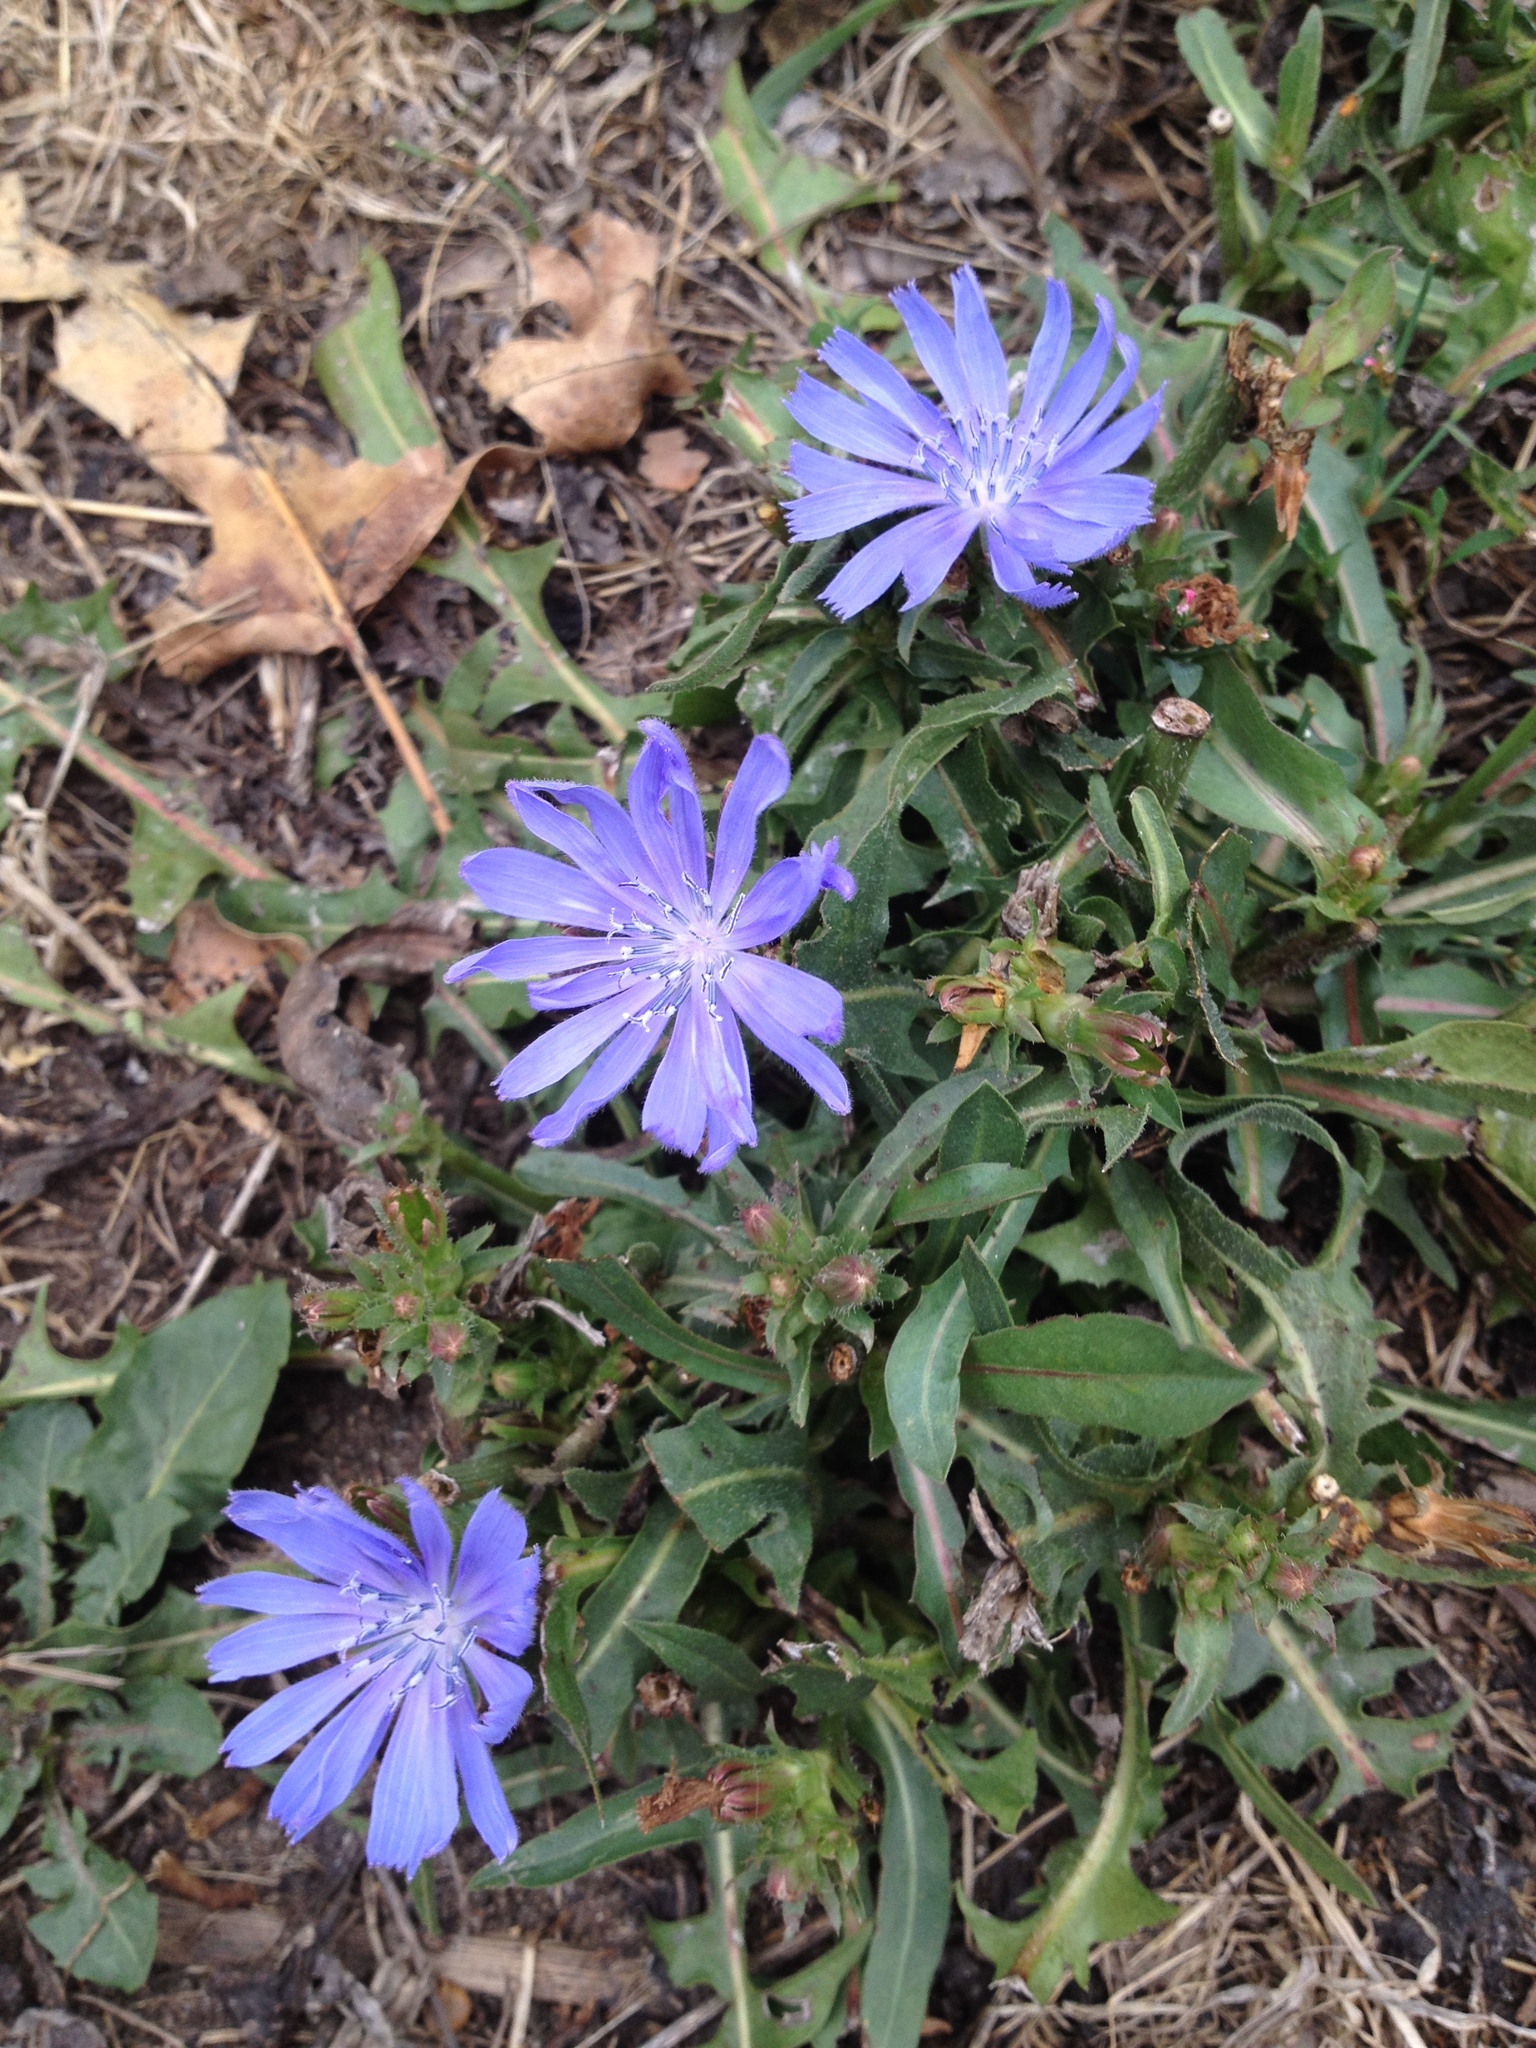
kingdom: Plantae
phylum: Tracheophyta
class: Magnoliopsida
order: Asterales
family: Asteraceae
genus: Cichorium
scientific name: Cichorium intybus
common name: Chicory
